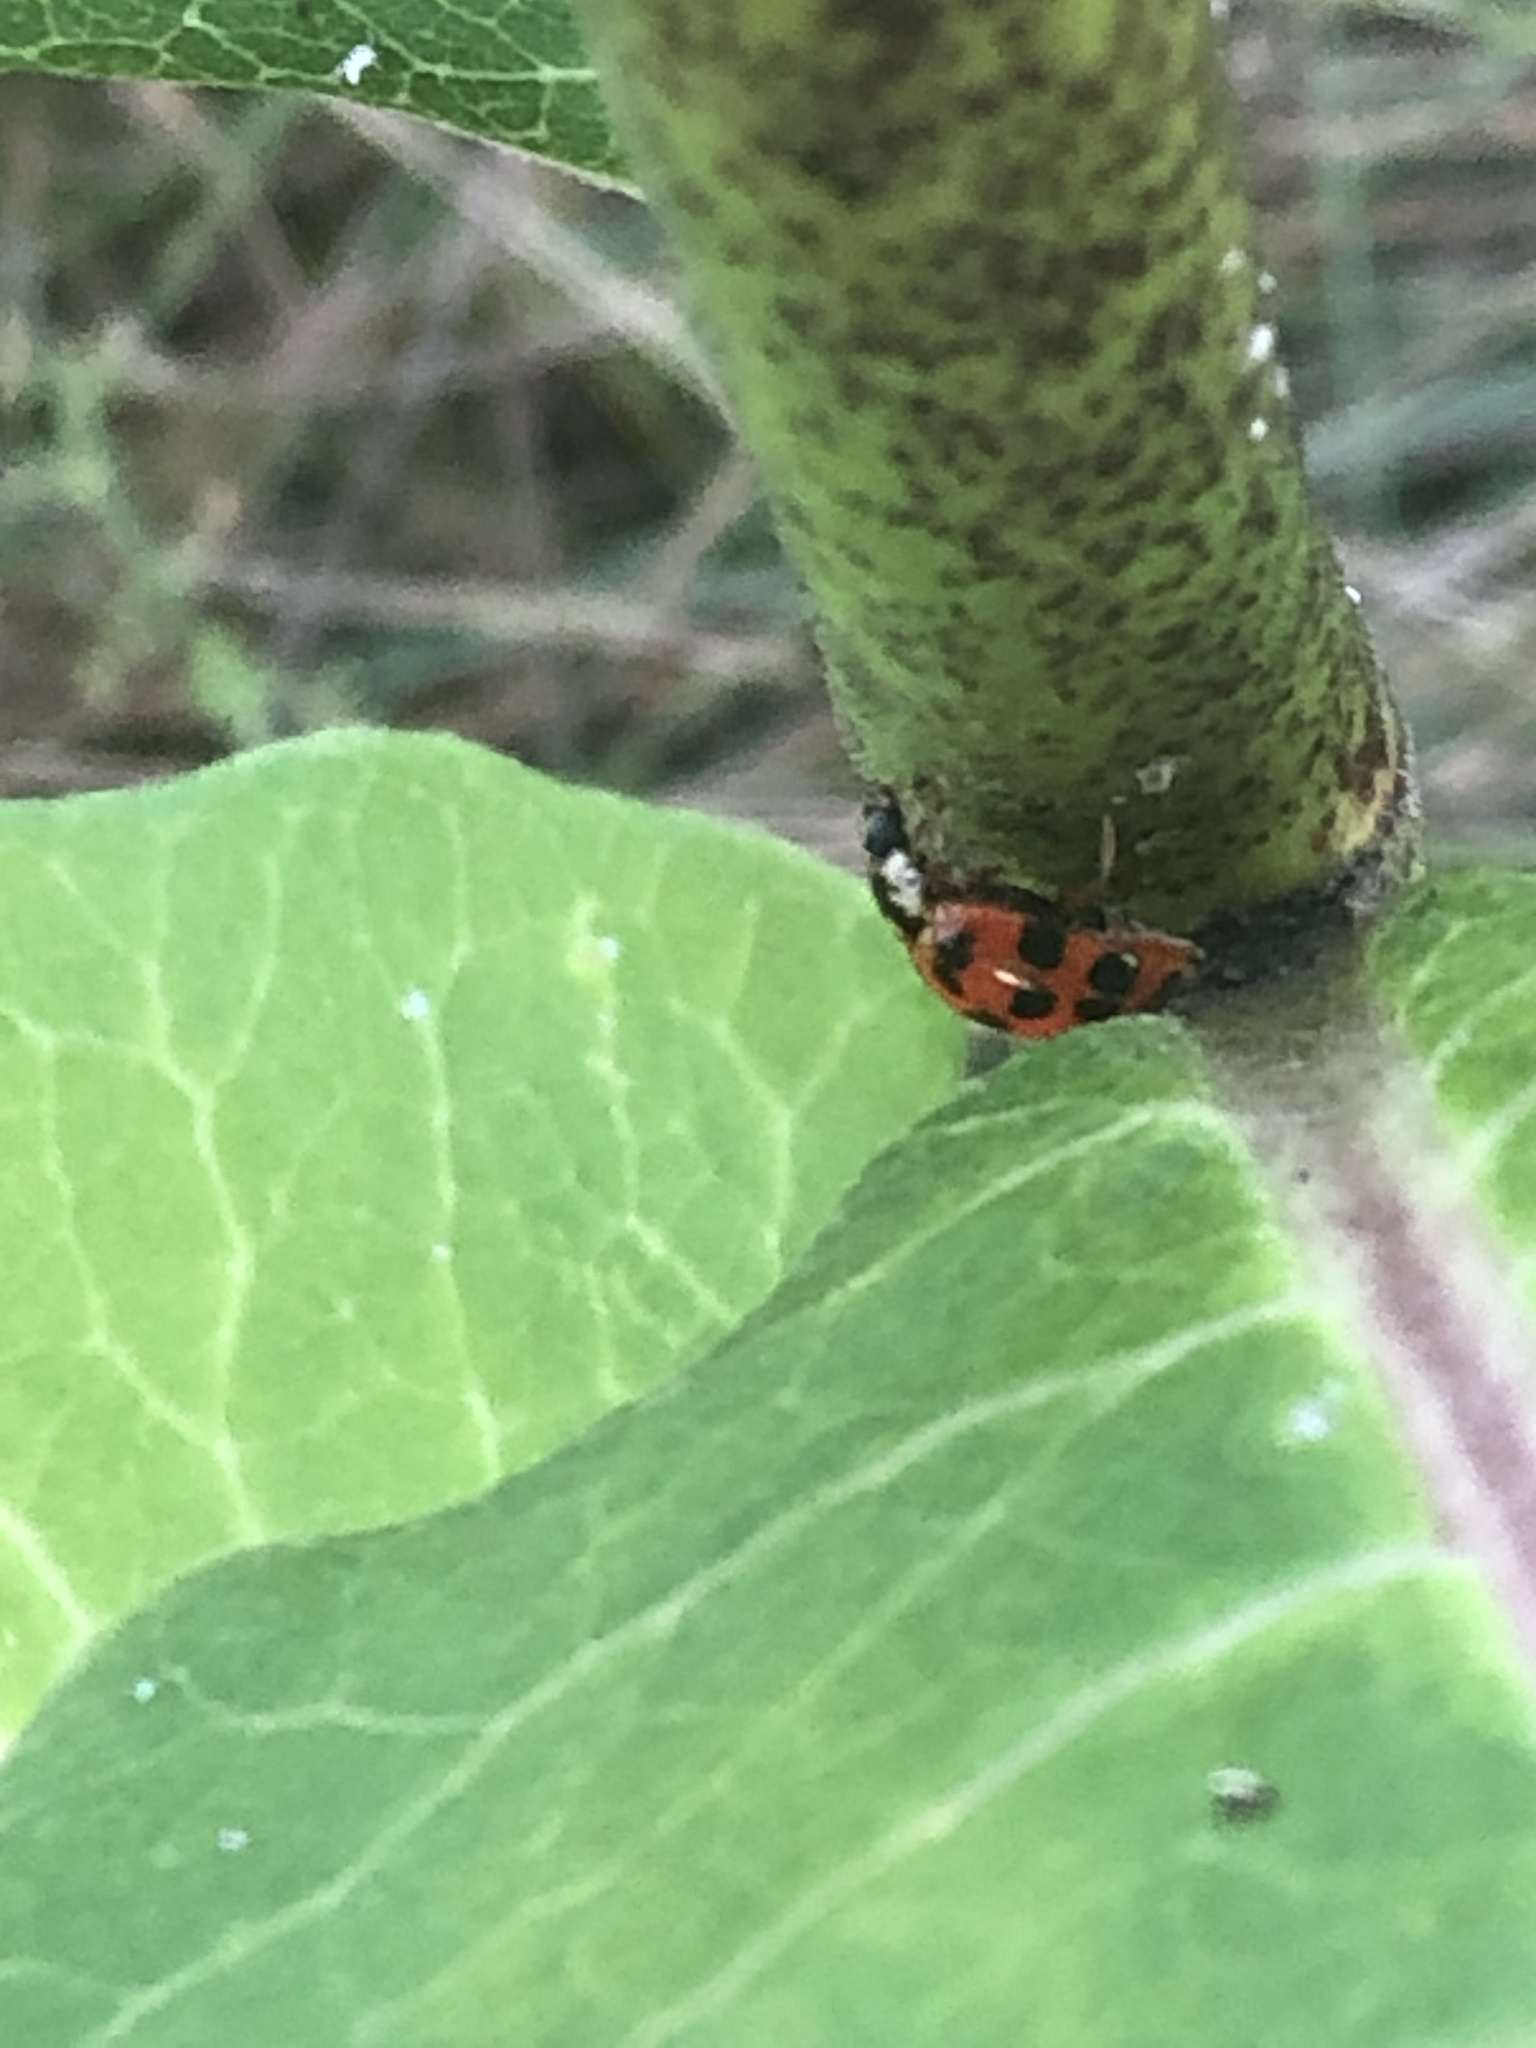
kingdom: Animalia
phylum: Arthropoda
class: Insecta
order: Coleoptera
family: Coccinellidae
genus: Harmonia
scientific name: Harmonia axyridis
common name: Harlequin ladybird
